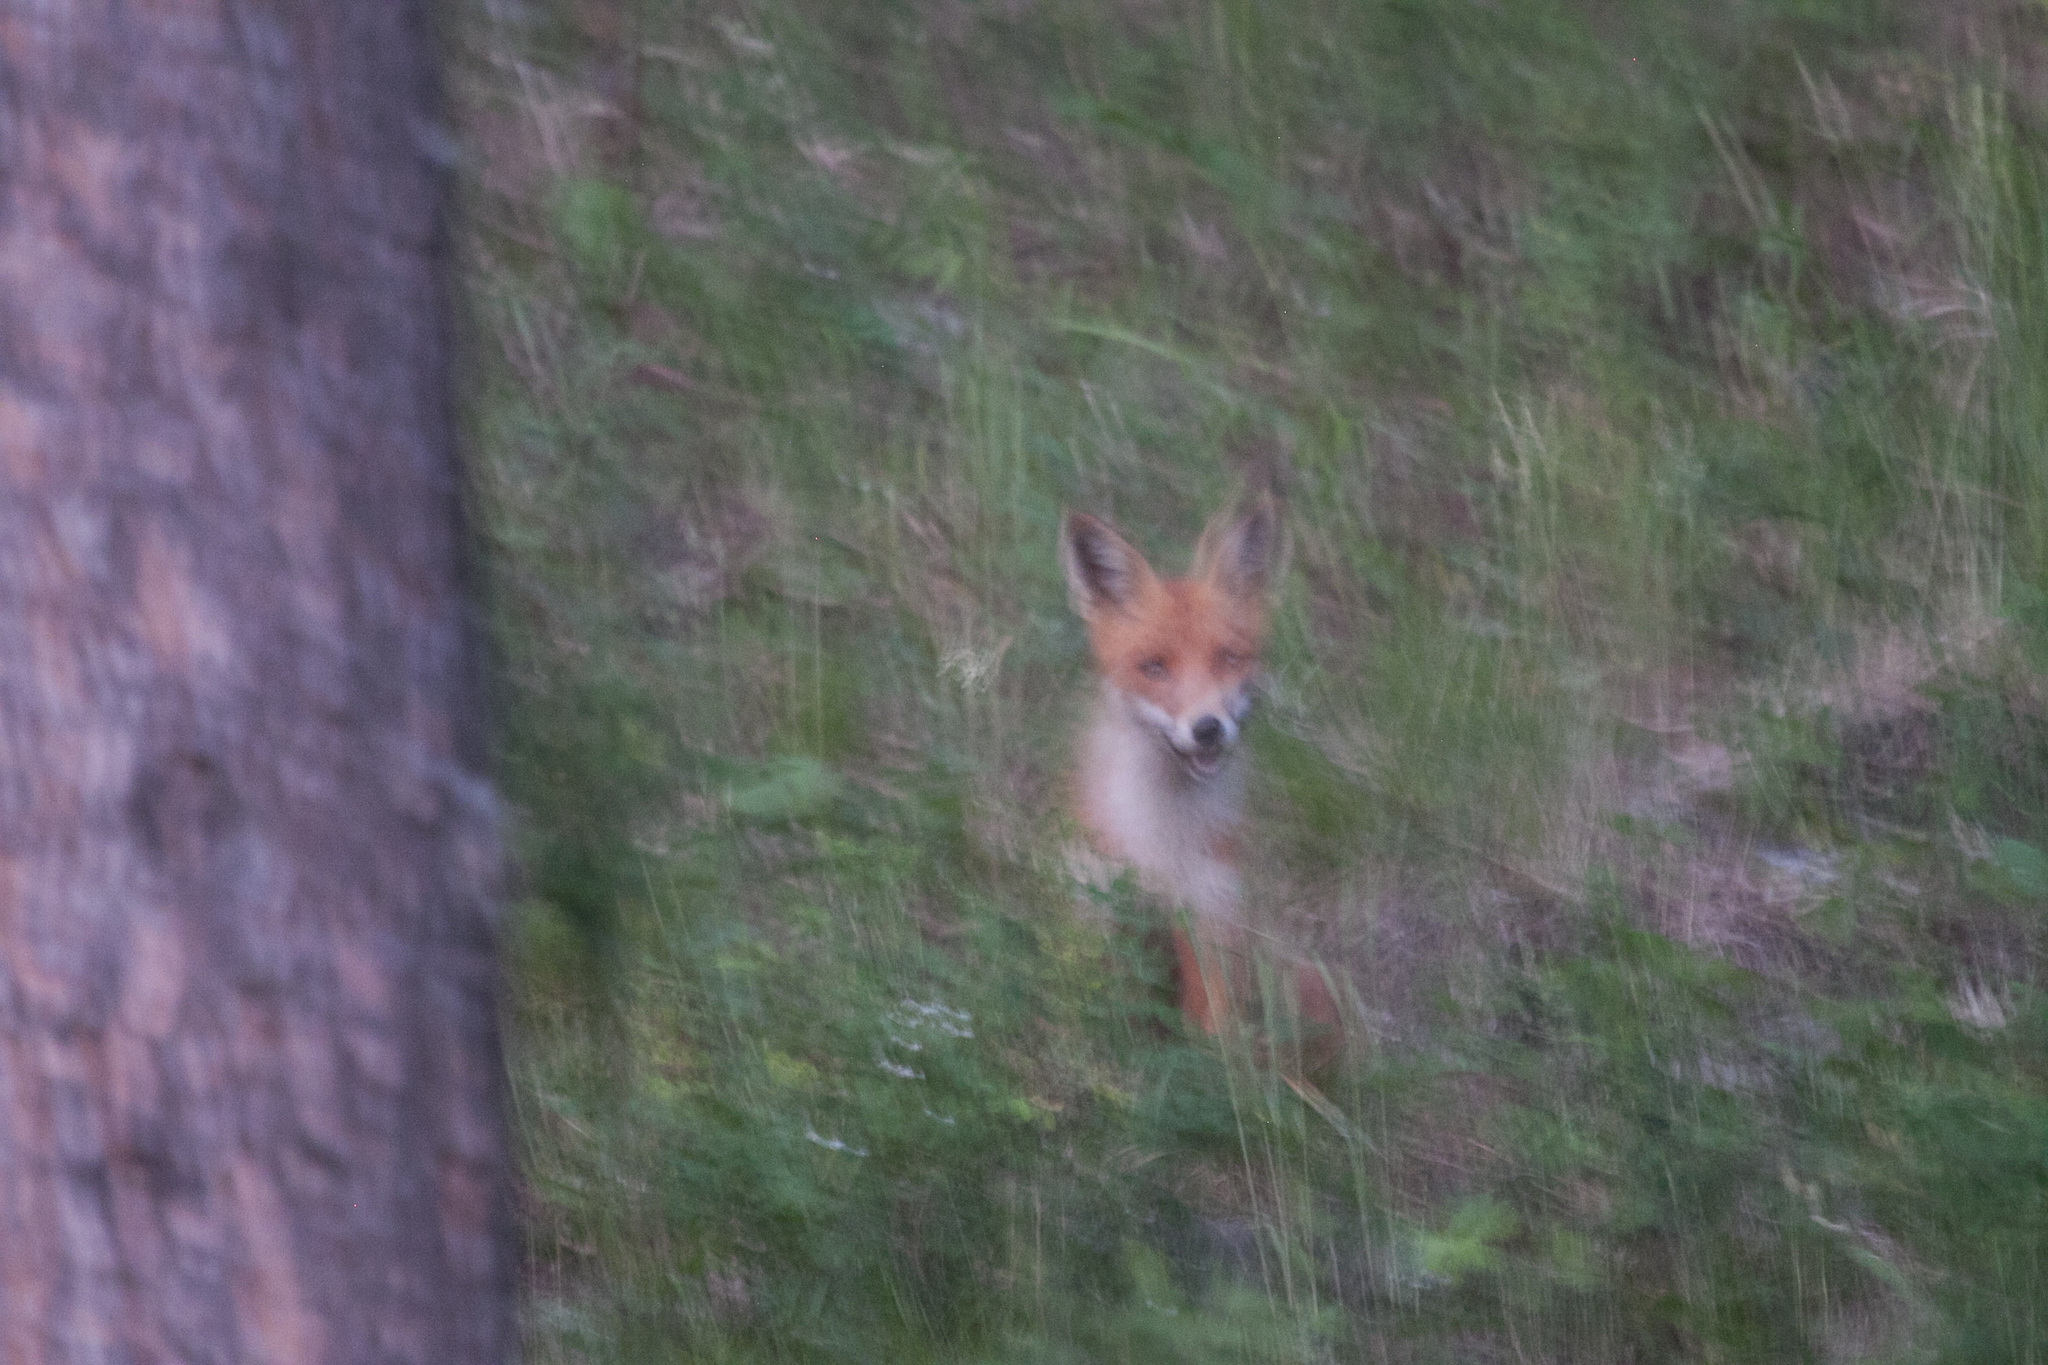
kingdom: Animalia
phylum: Chordata
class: Mammalia
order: Carnivora
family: Canidae
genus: Vulpes
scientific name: Vulpes vulpes
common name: Red fox
